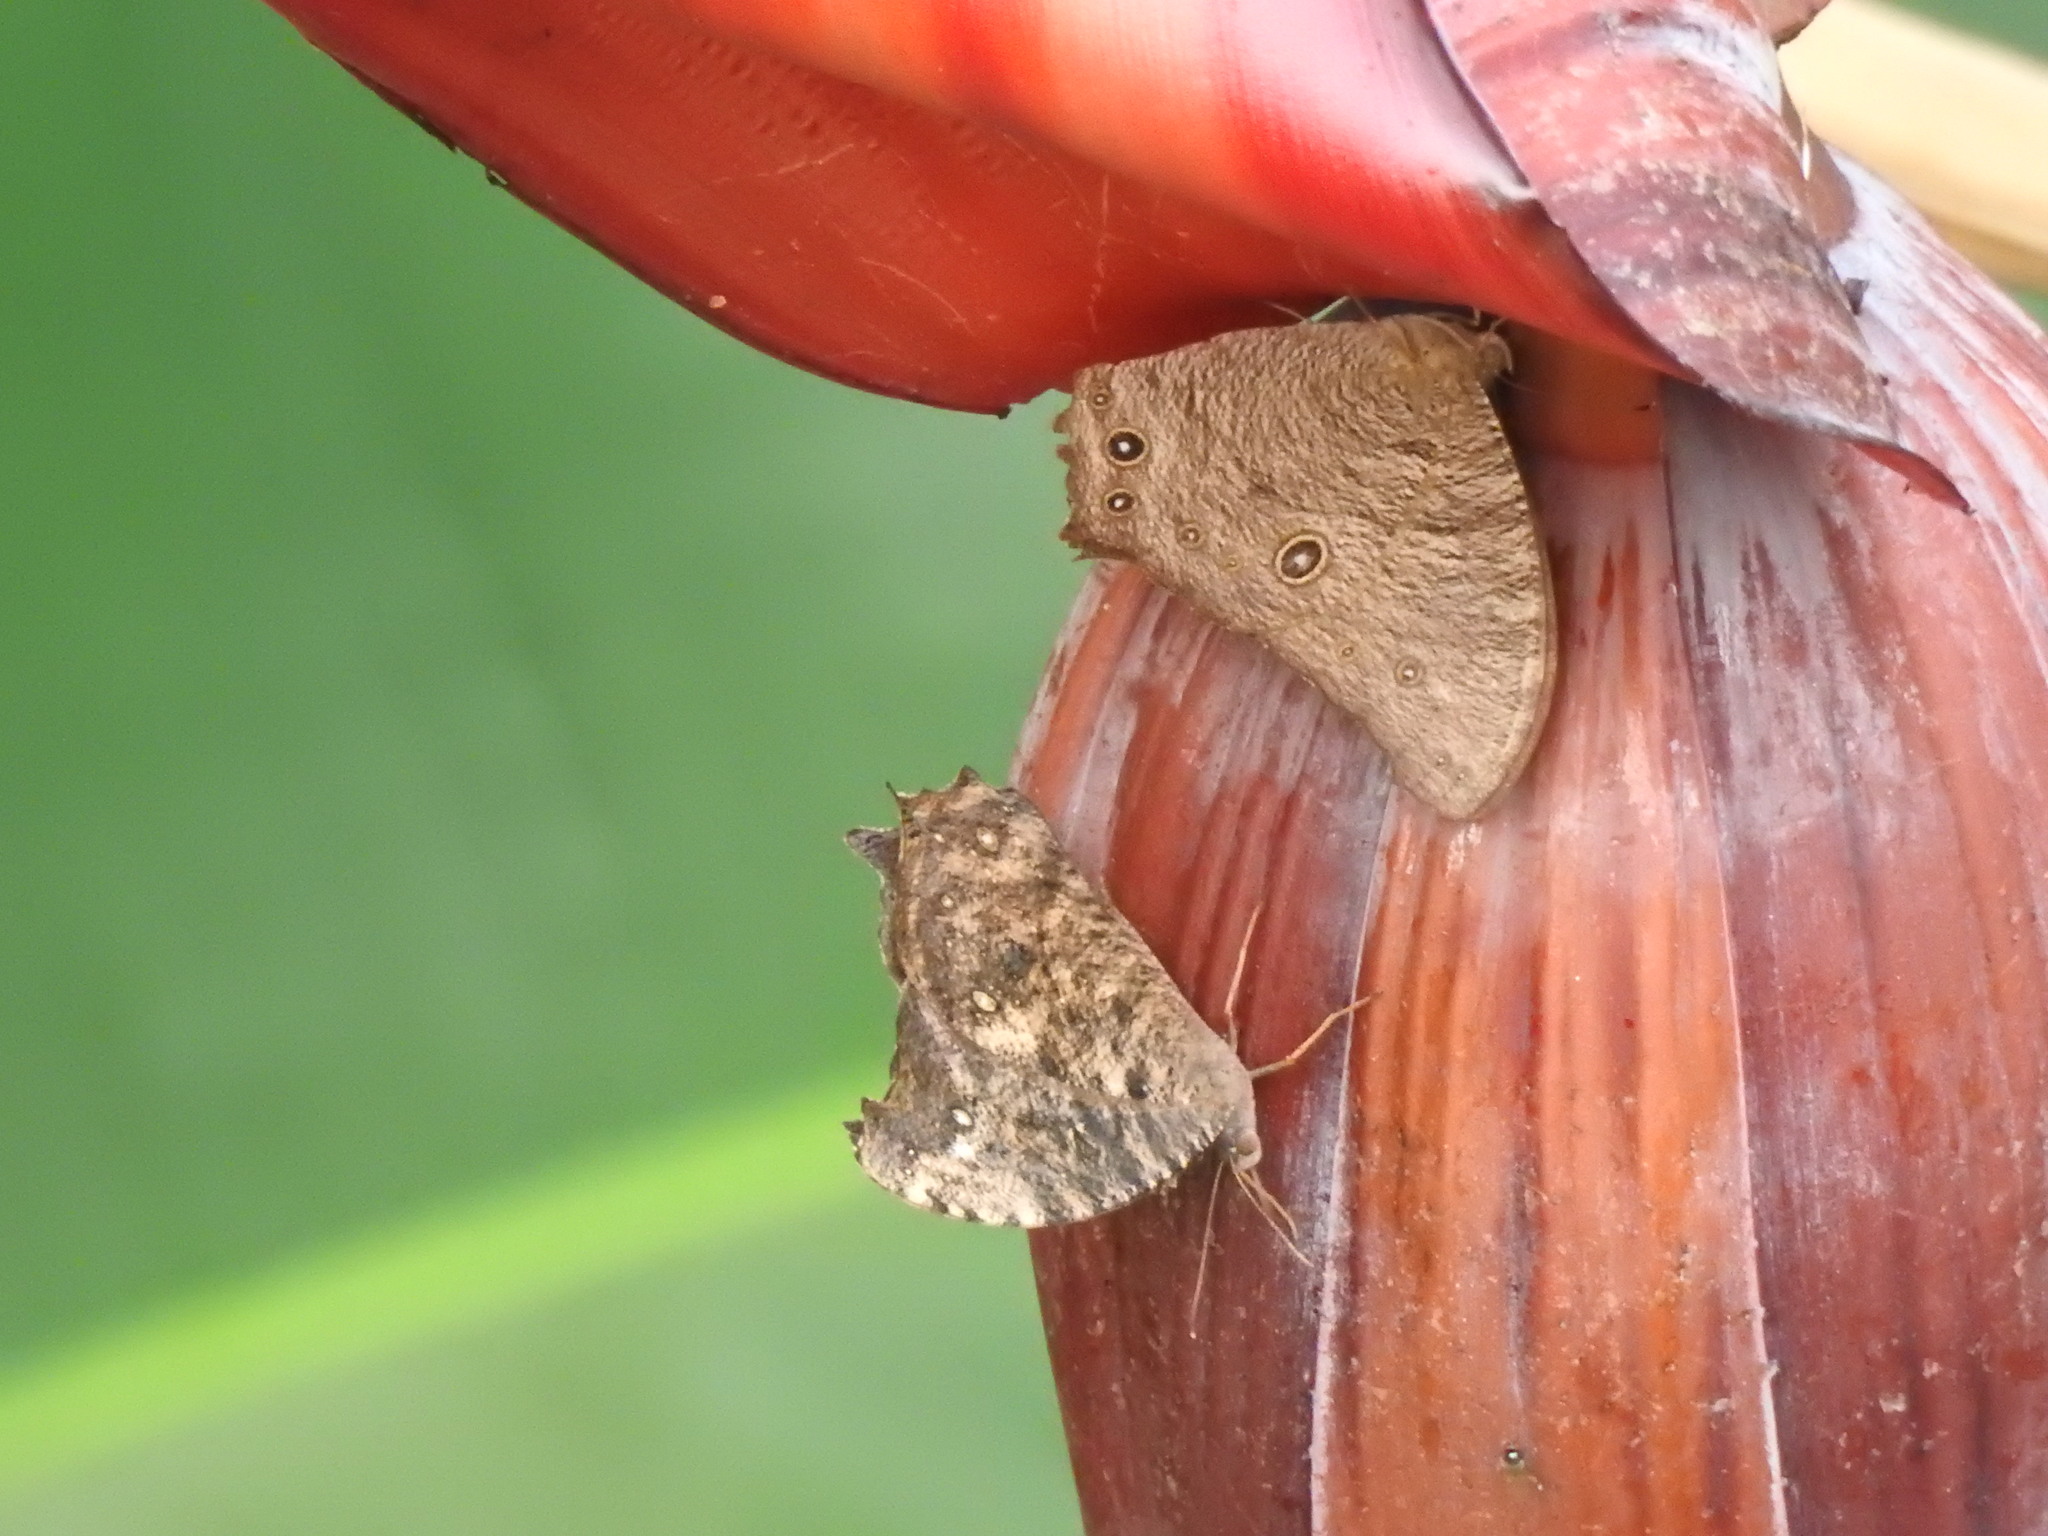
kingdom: Animalia
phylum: Arthropoda
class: Insecta
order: Lepidoptera
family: Nymphalidae
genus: Melanitis
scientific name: Melanitis leda
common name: Twilight brown
